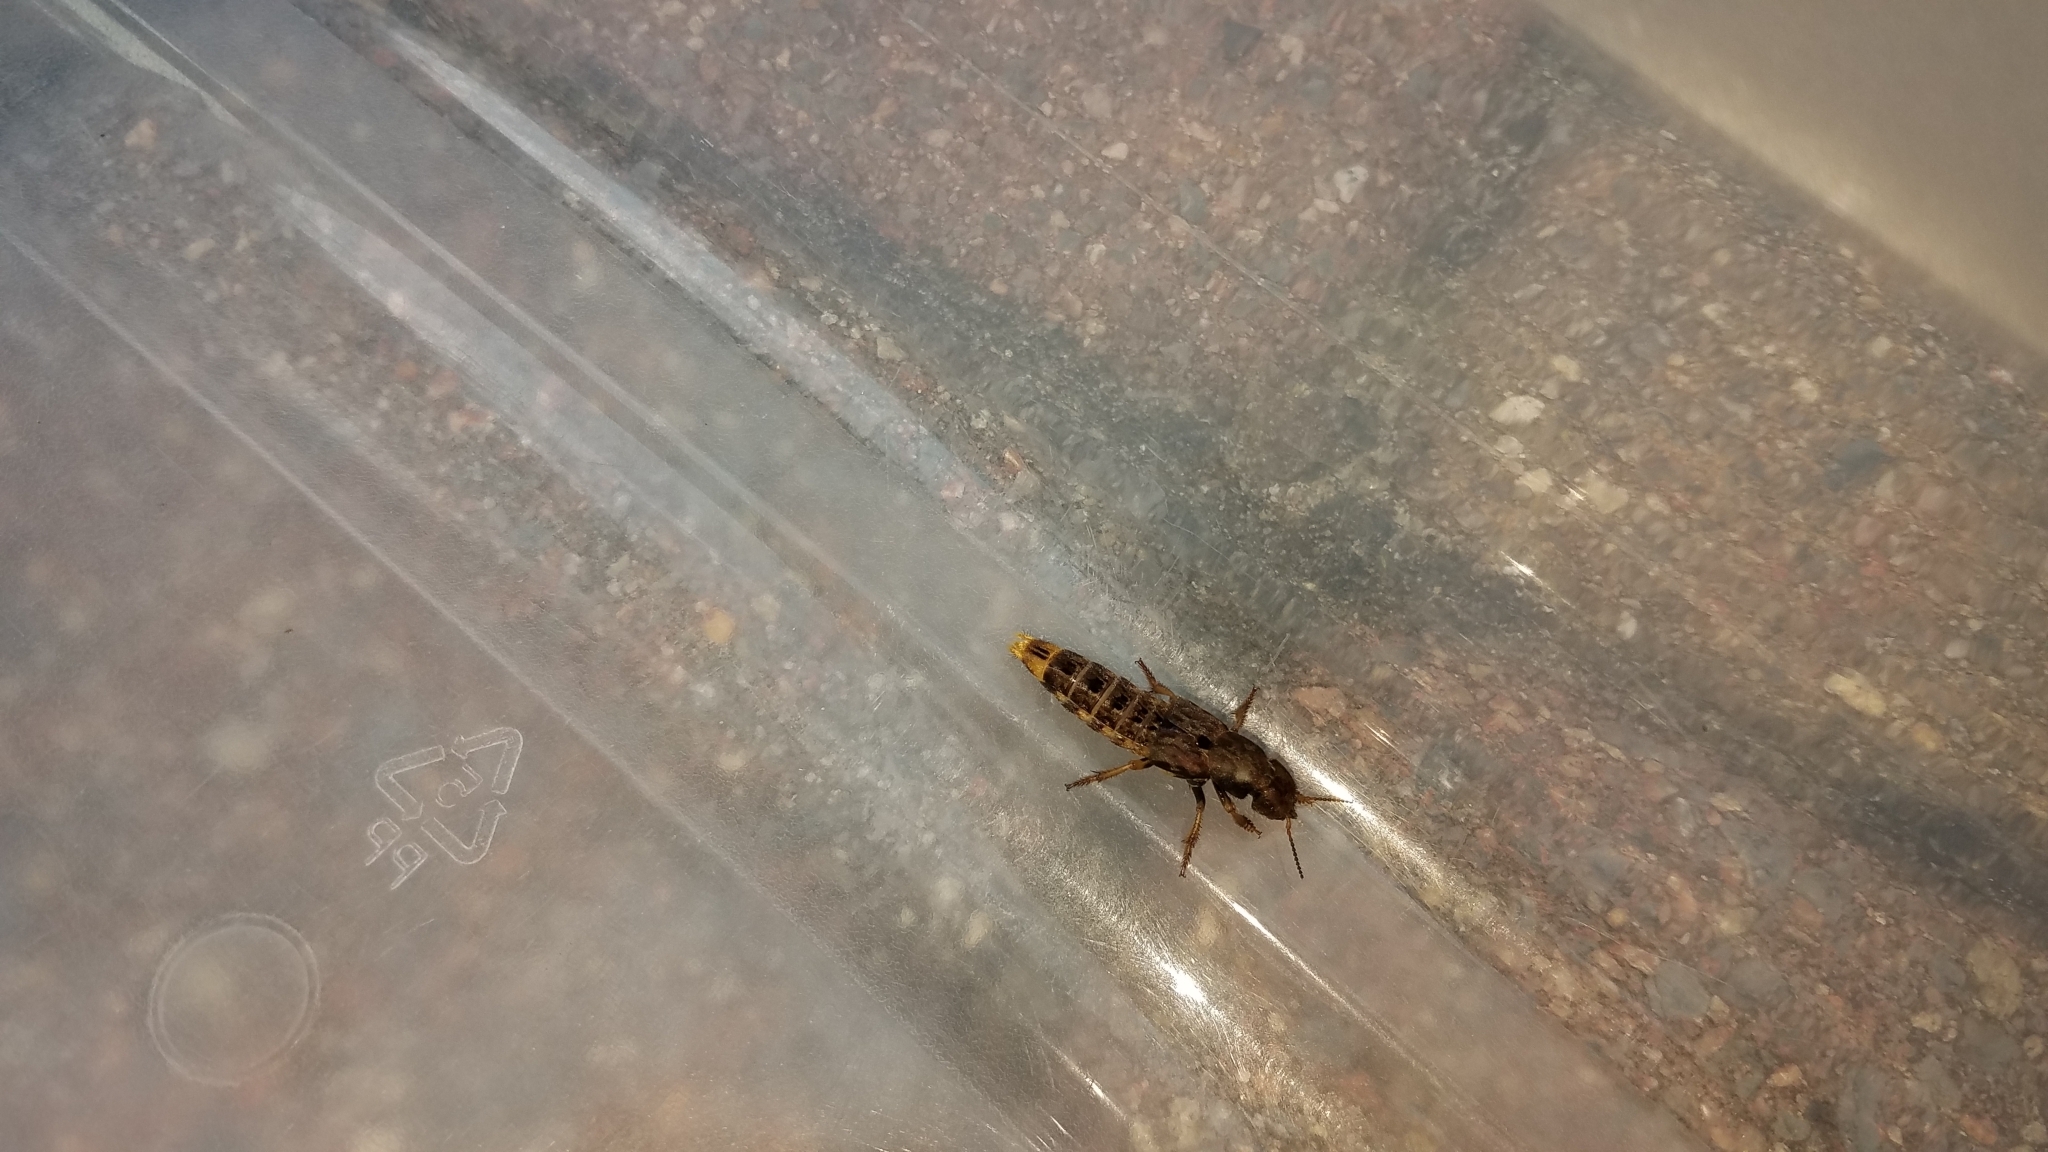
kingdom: Animalia
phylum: Arthropoda
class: Insecta
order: Coleoptera
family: Staphylinidae
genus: Platydracus
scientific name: Platydracus maculosus
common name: Brown rove beetle
